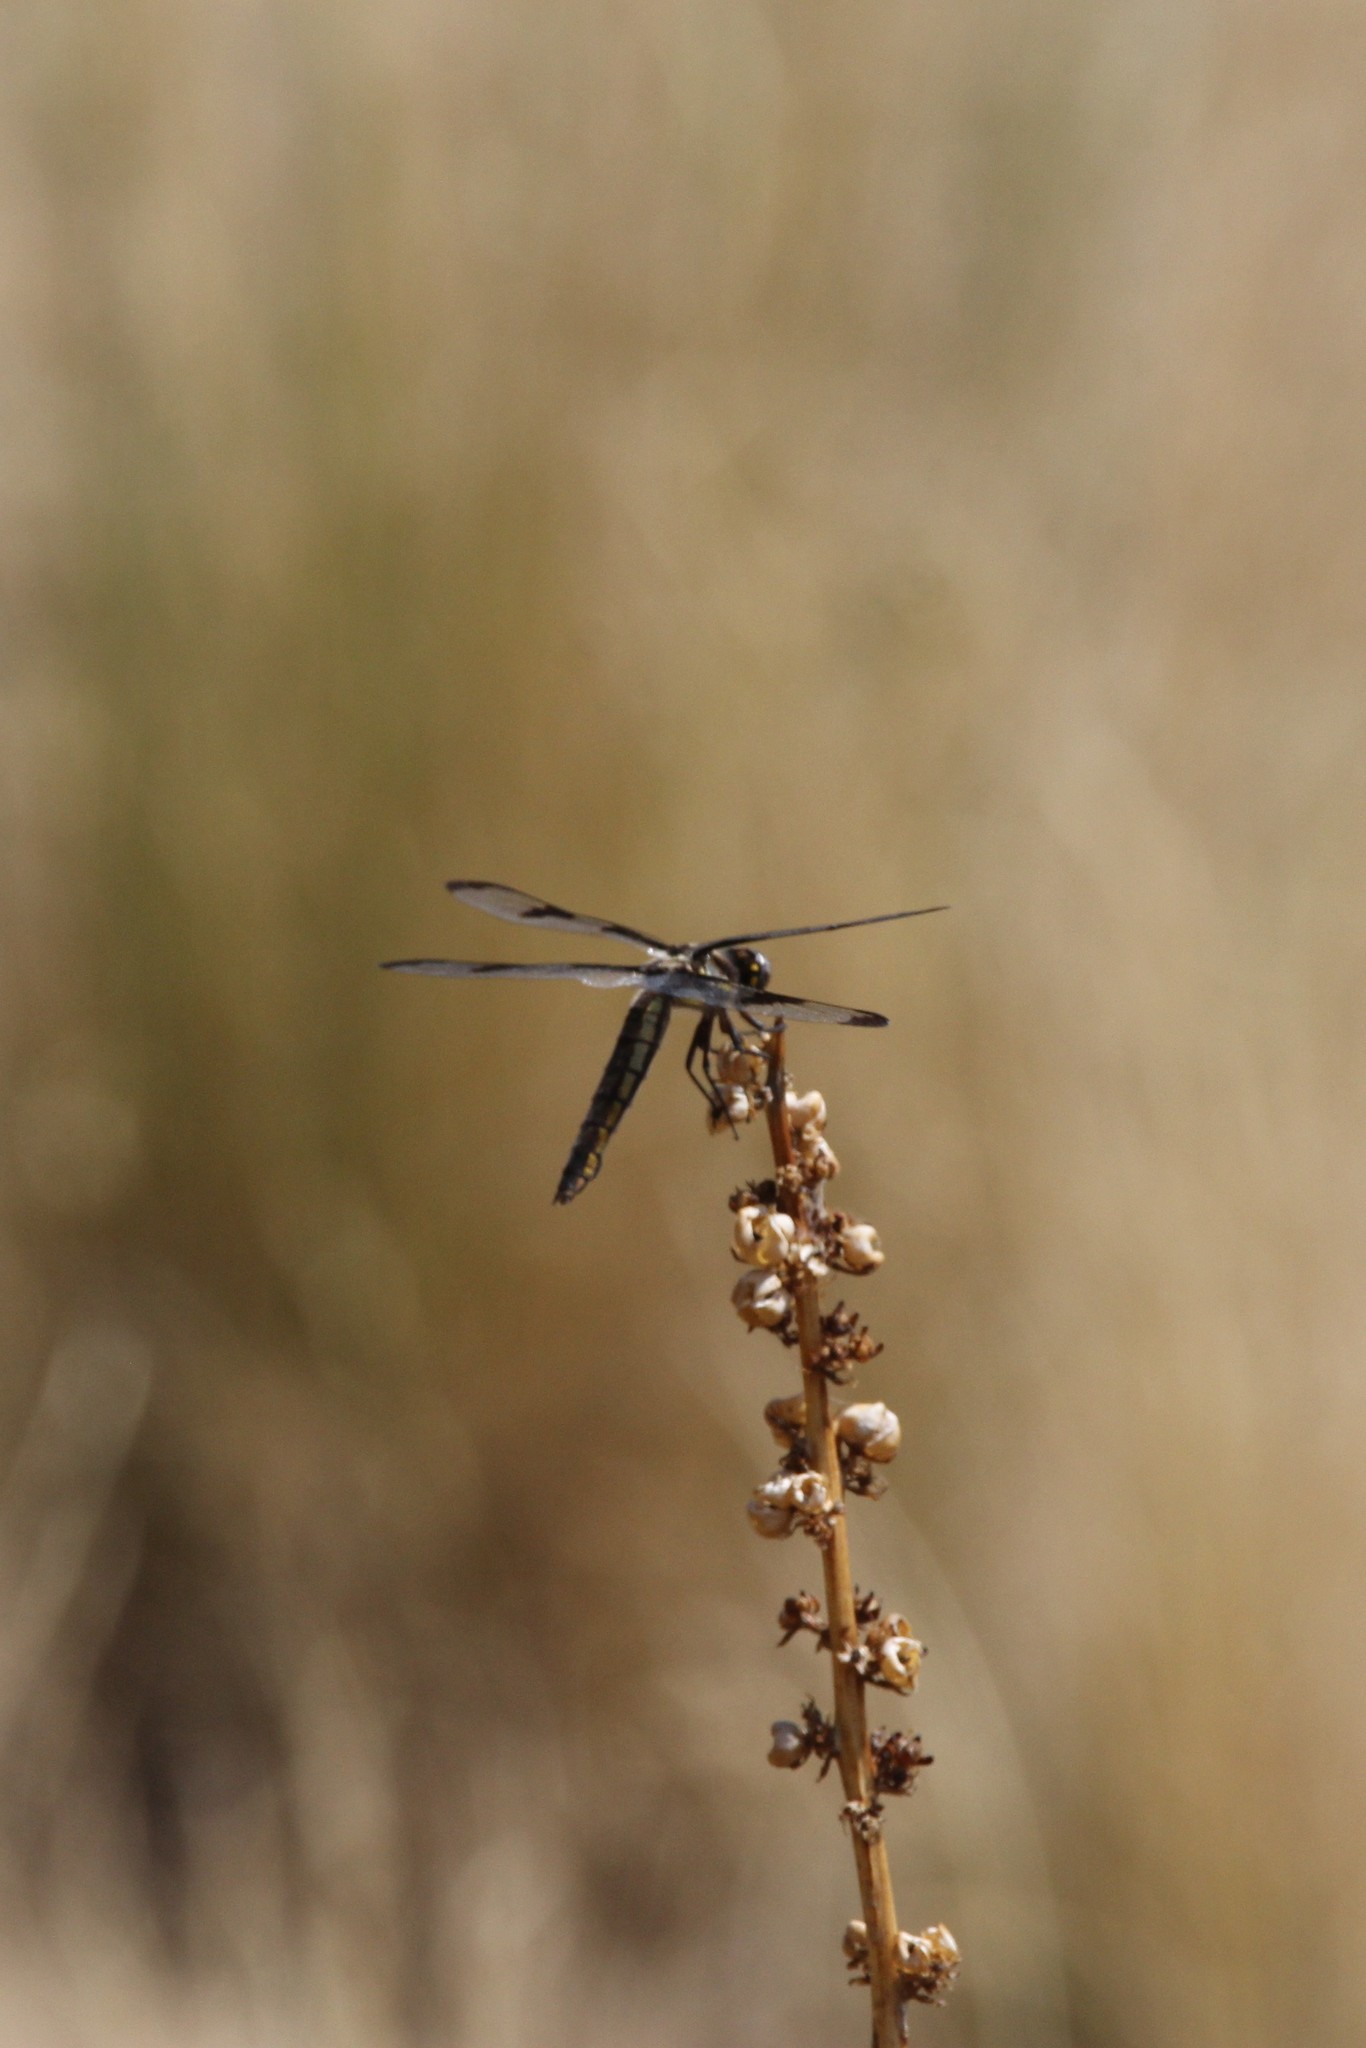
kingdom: Animalia
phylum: Arthropoda
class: Insecta
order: Odonata
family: Libellulidae
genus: Libellula
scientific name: Libellula pulchella
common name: Twelve-spotted skimmer
